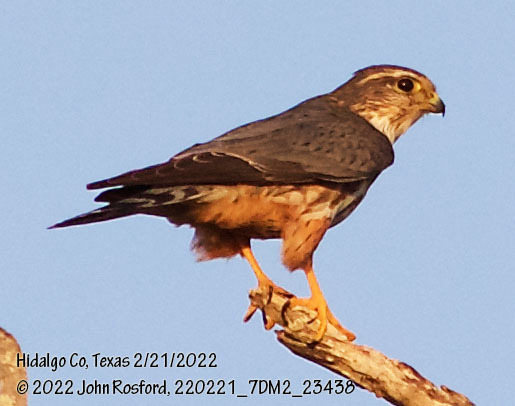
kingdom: Animalia
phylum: Chordata
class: Aves
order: Falconiformes
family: Falconidae
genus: Falco
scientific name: Falco columbarius
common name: Merlin
